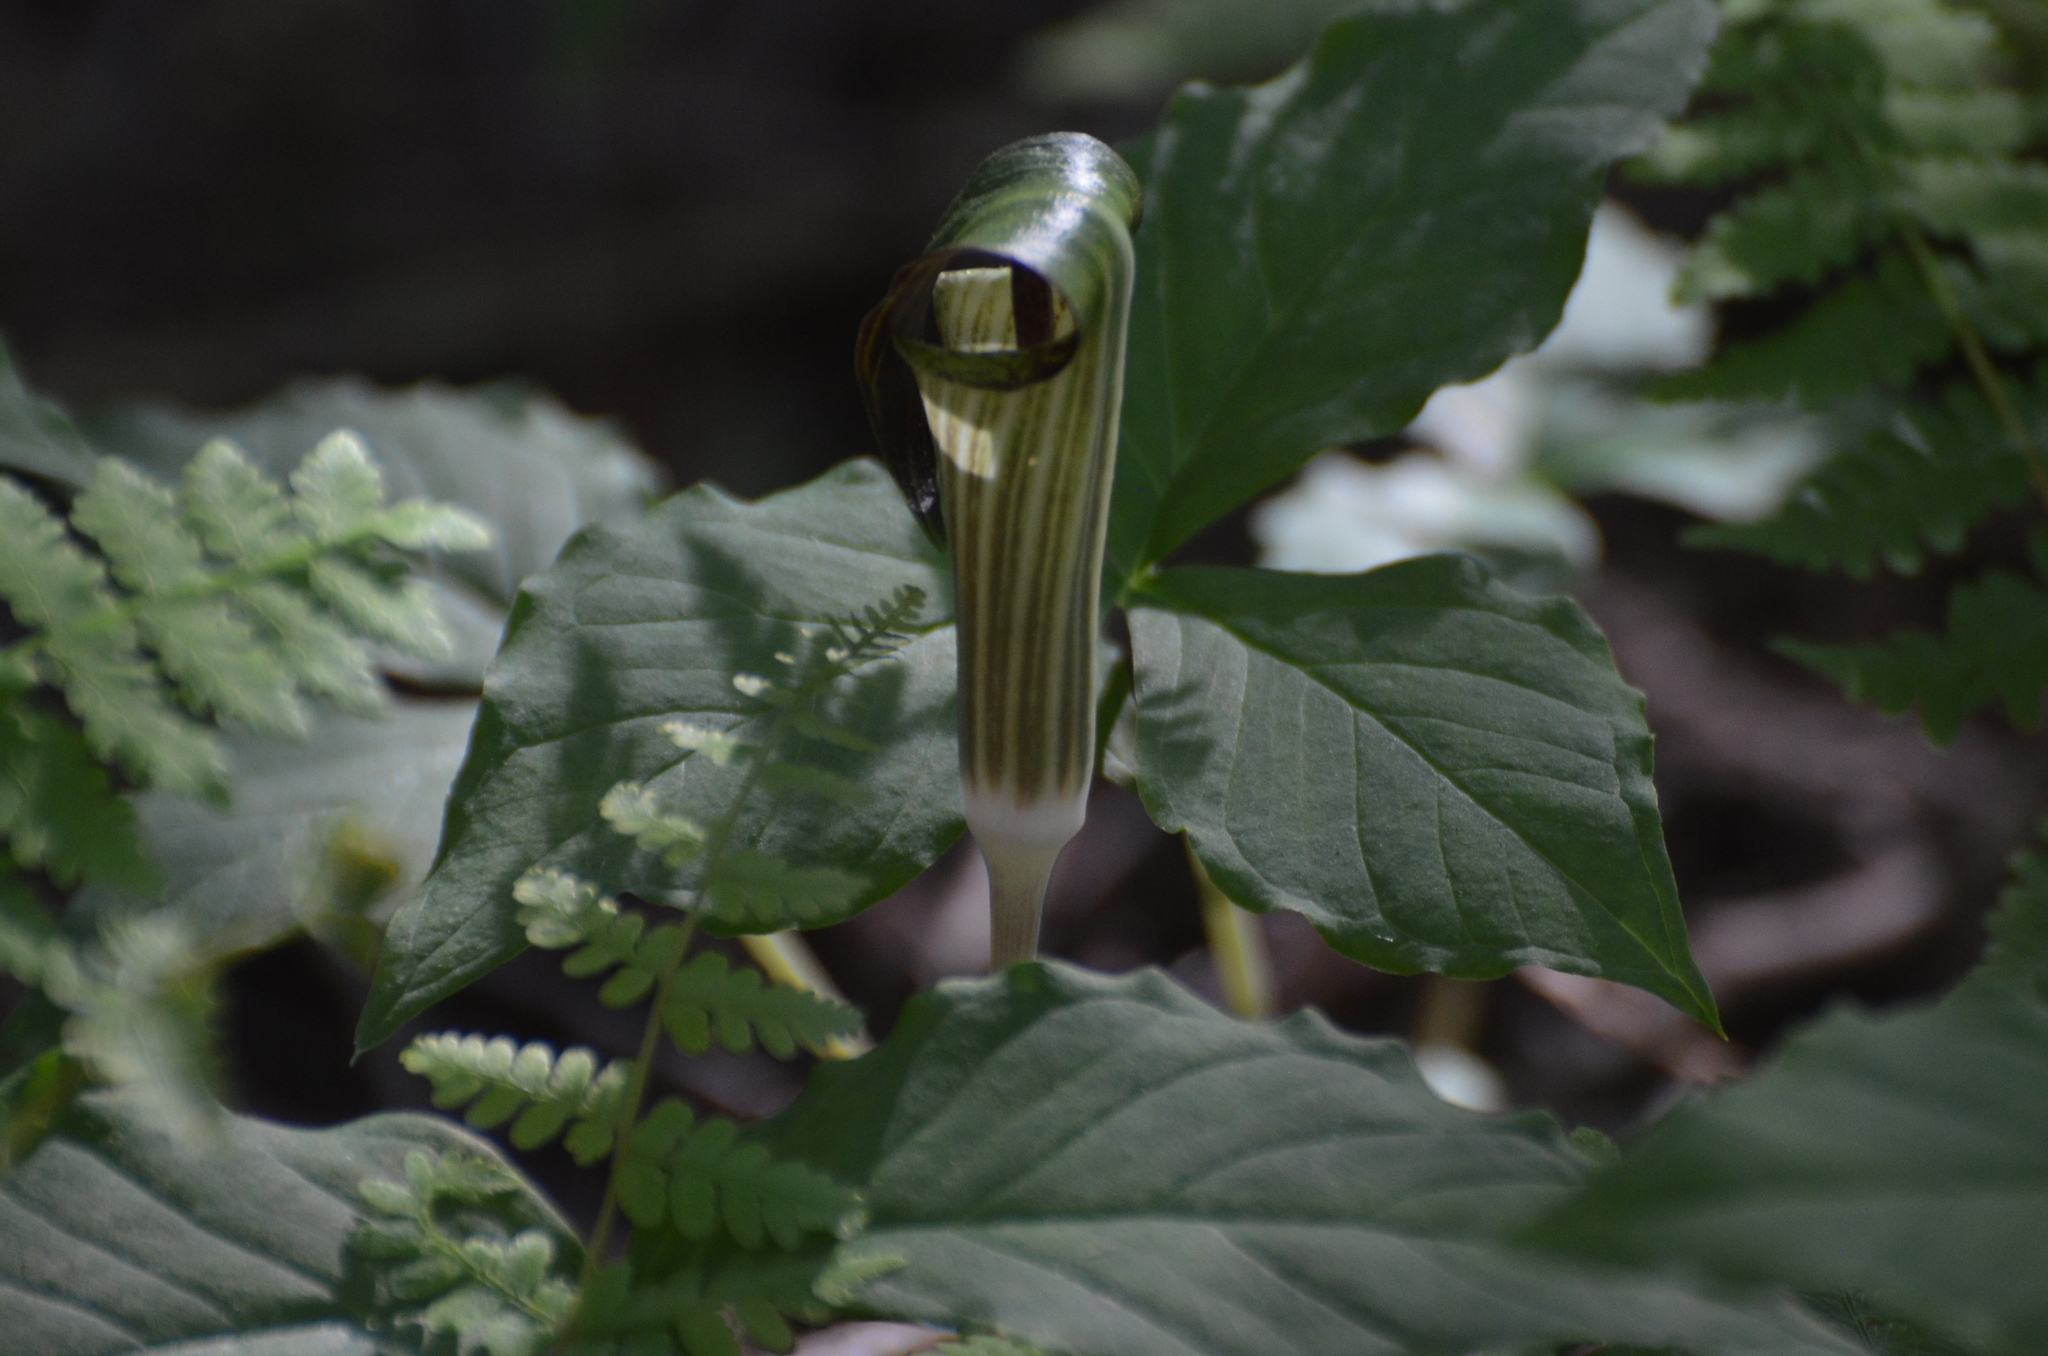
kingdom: Plantae
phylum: Tracheophyta
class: Liliopsida
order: Alismatales
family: Araceae
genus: Arisaema
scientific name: Arisaema triphyllum
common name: Jack-in-the-pulpit
